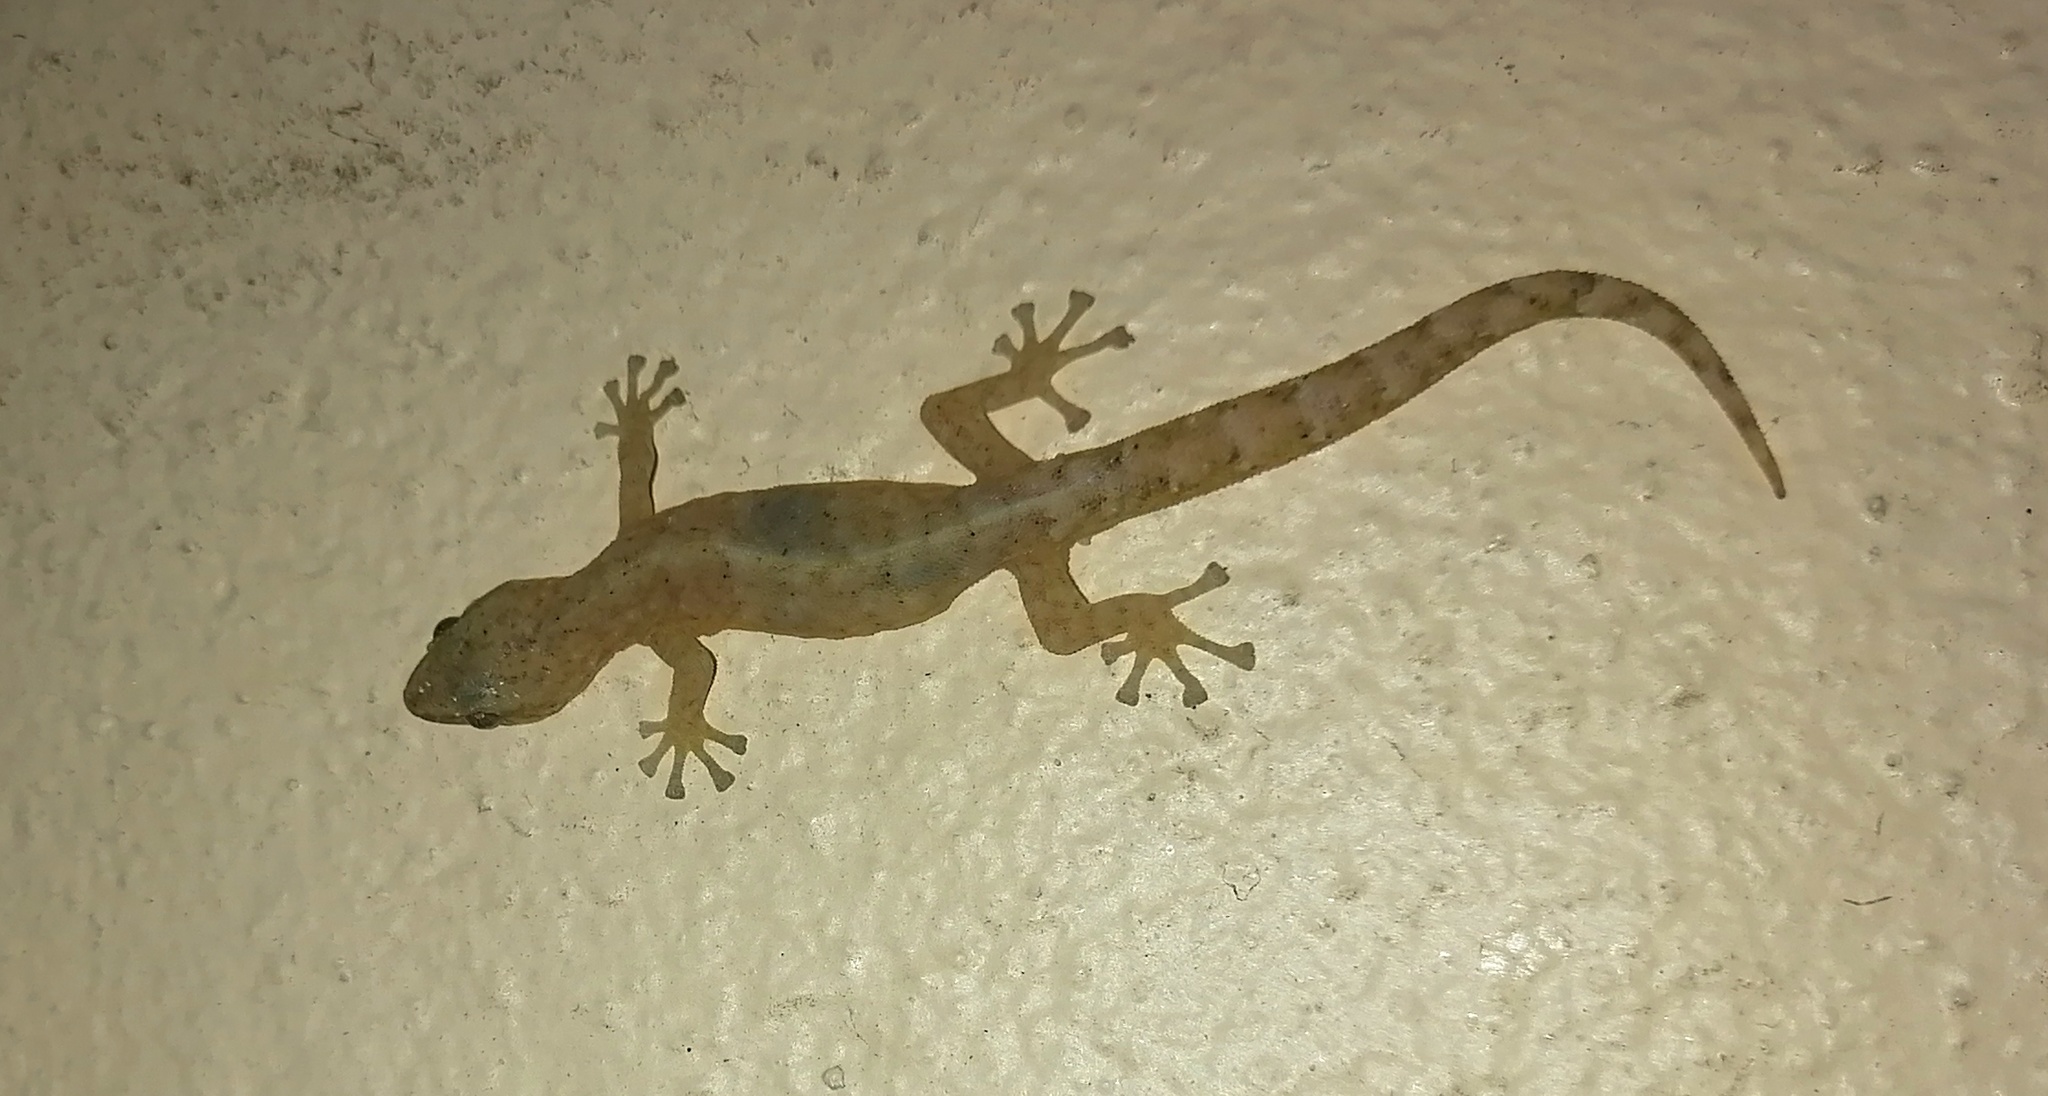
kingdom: Animalia
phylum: Chordata
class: Squamata
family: Gekkonidae
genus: Afrogecko
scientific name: Afrogecko porphyreus
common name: Marbled leaf-toed gecko
